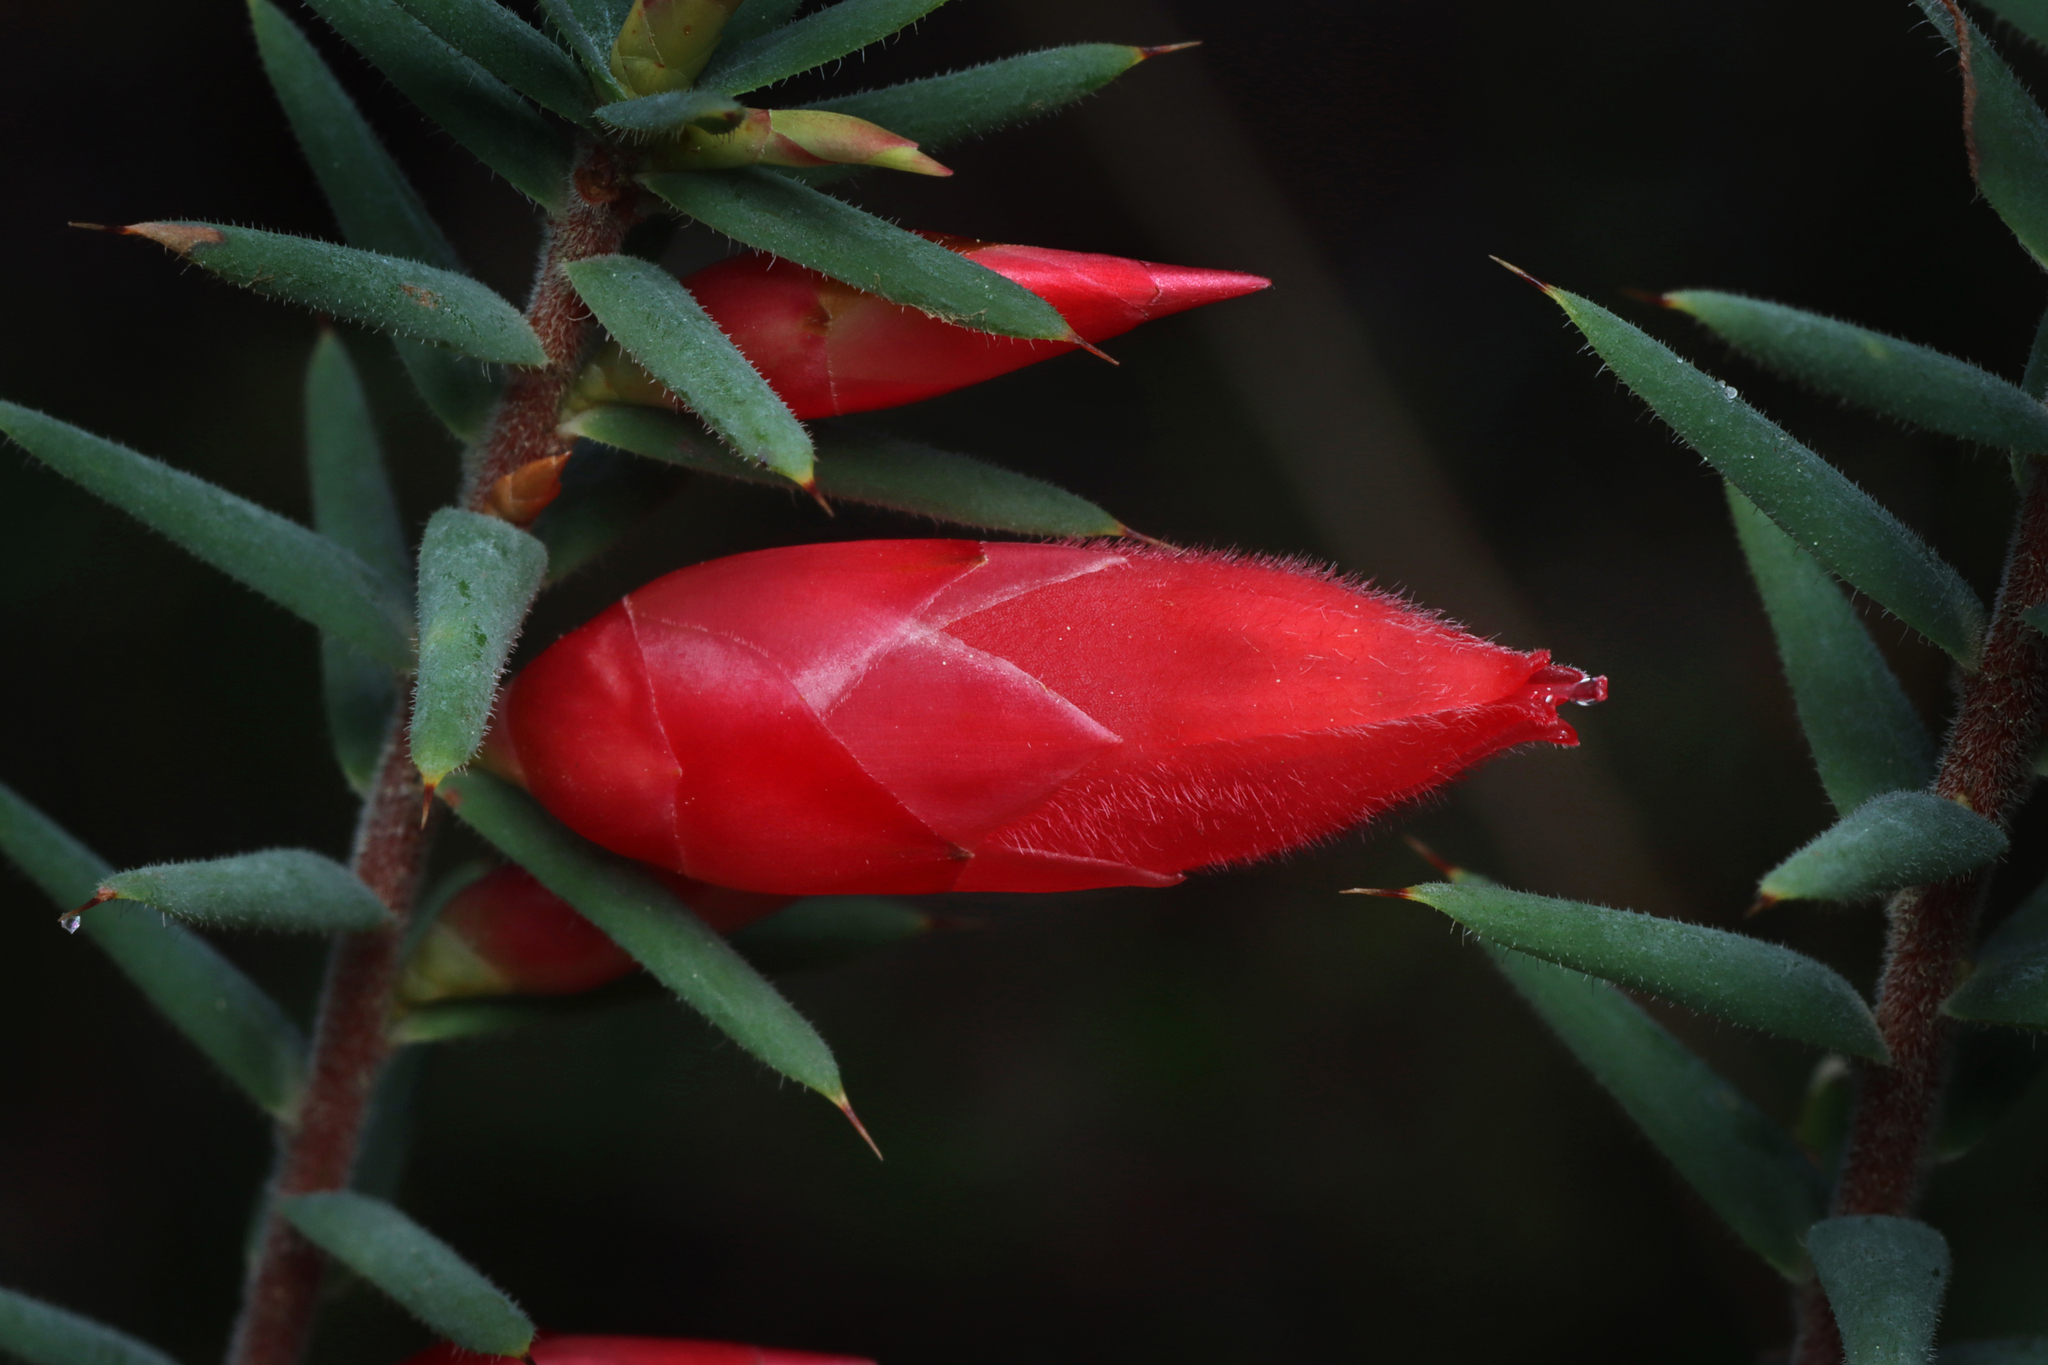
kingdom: Plantae
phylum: Tracheophyta
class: Magnoliopsida
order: Ericales
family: Ericaceae
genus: Stenanthera
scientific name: Stenanthera conostephioides
